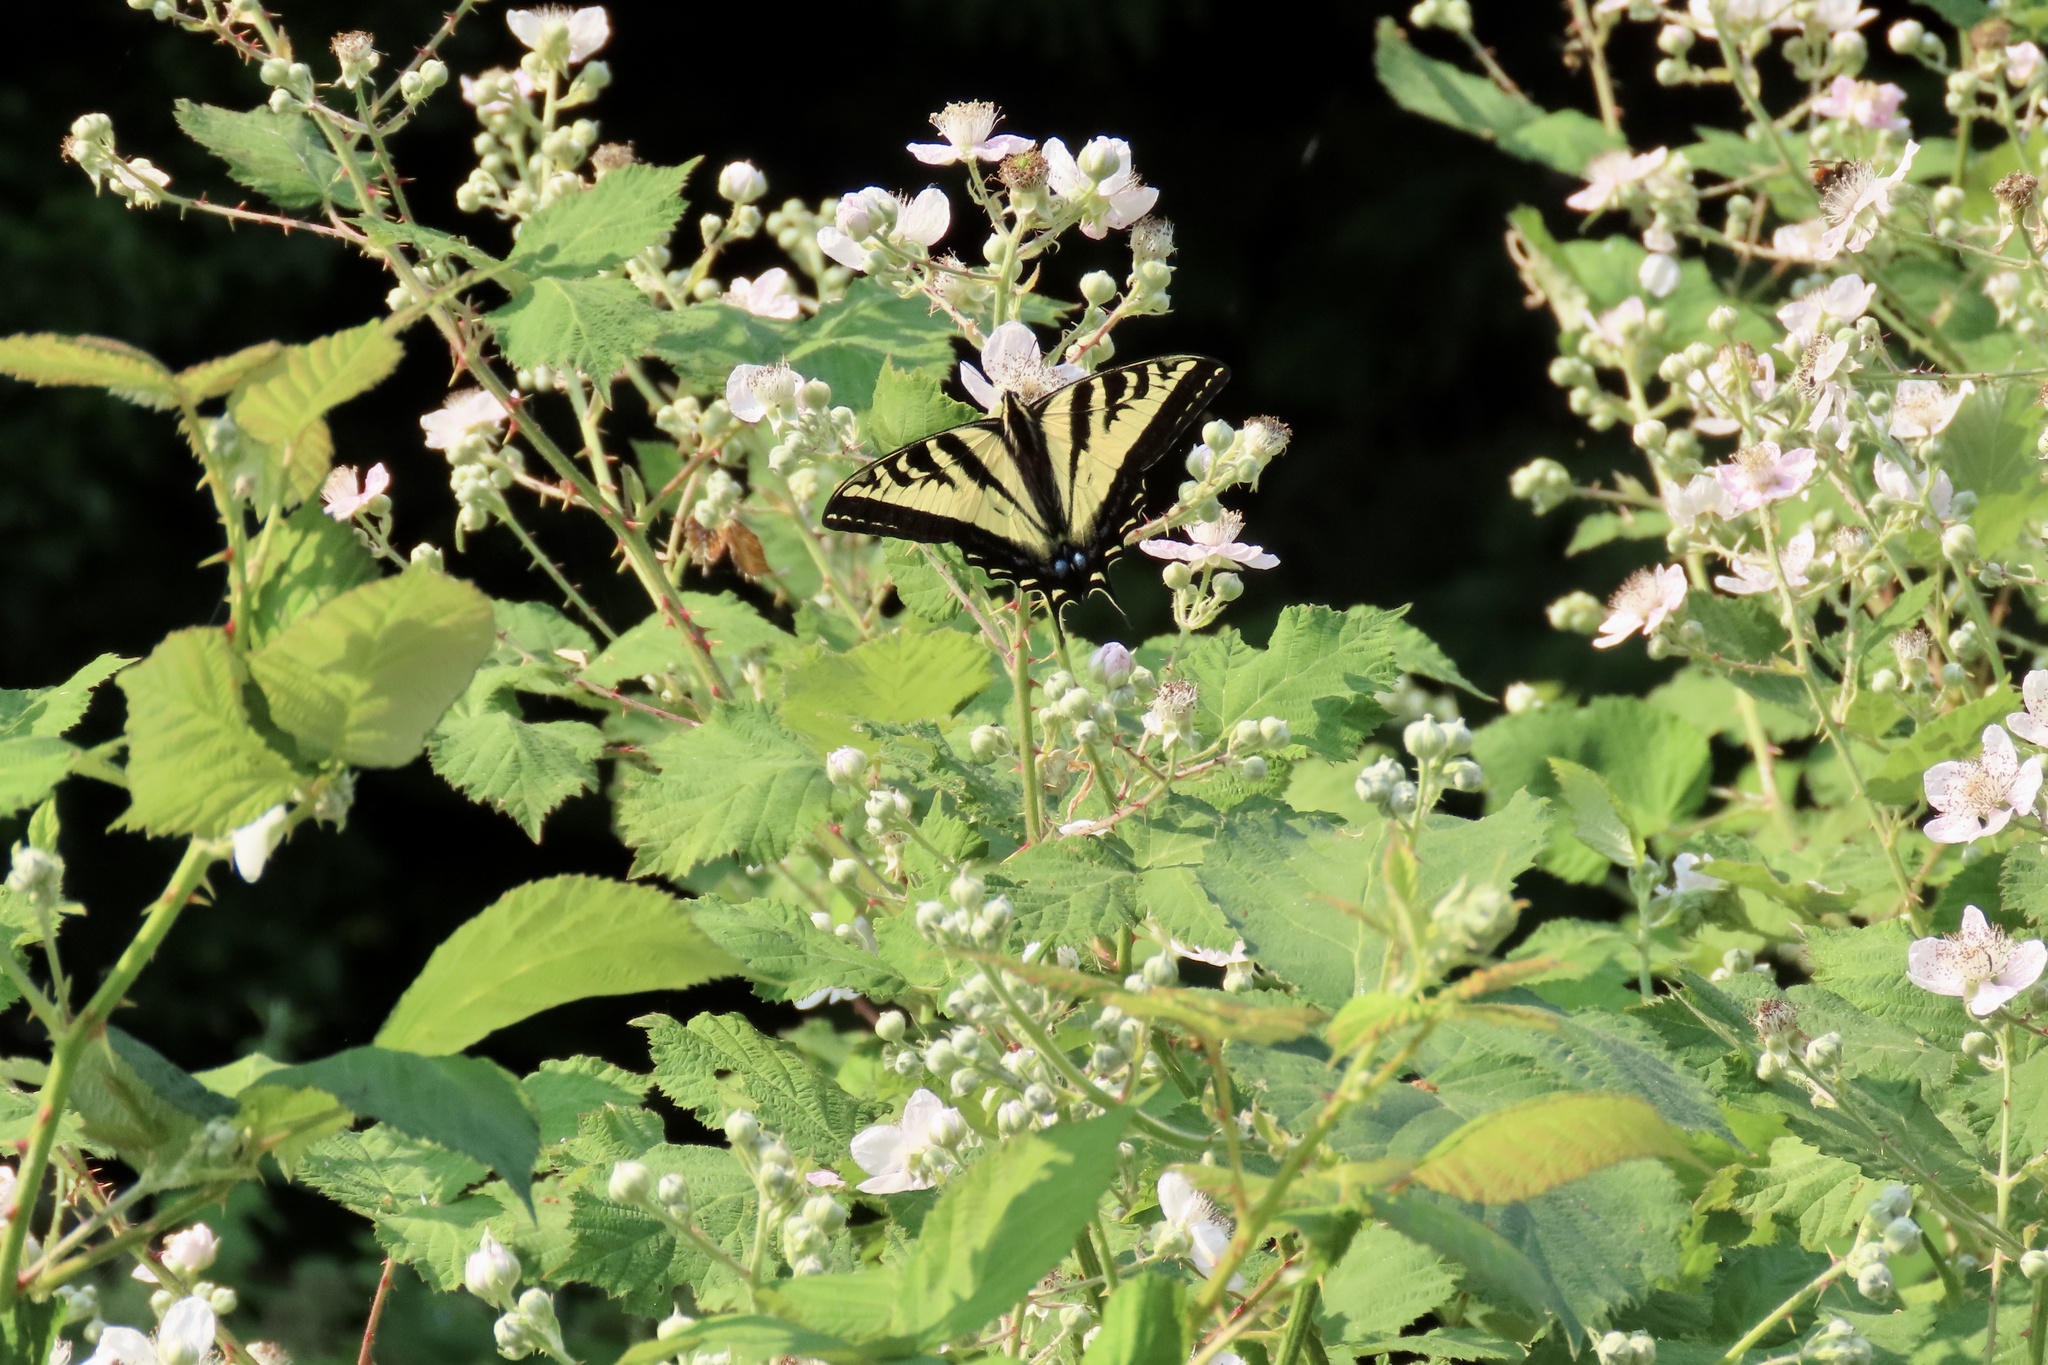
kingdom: Animalia
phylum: Arthropoda
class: Insecta
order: Lepidoptera
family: Papilionidae
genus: Papilio
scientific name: Papilio rutulus
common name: Western tiger swallowtail
